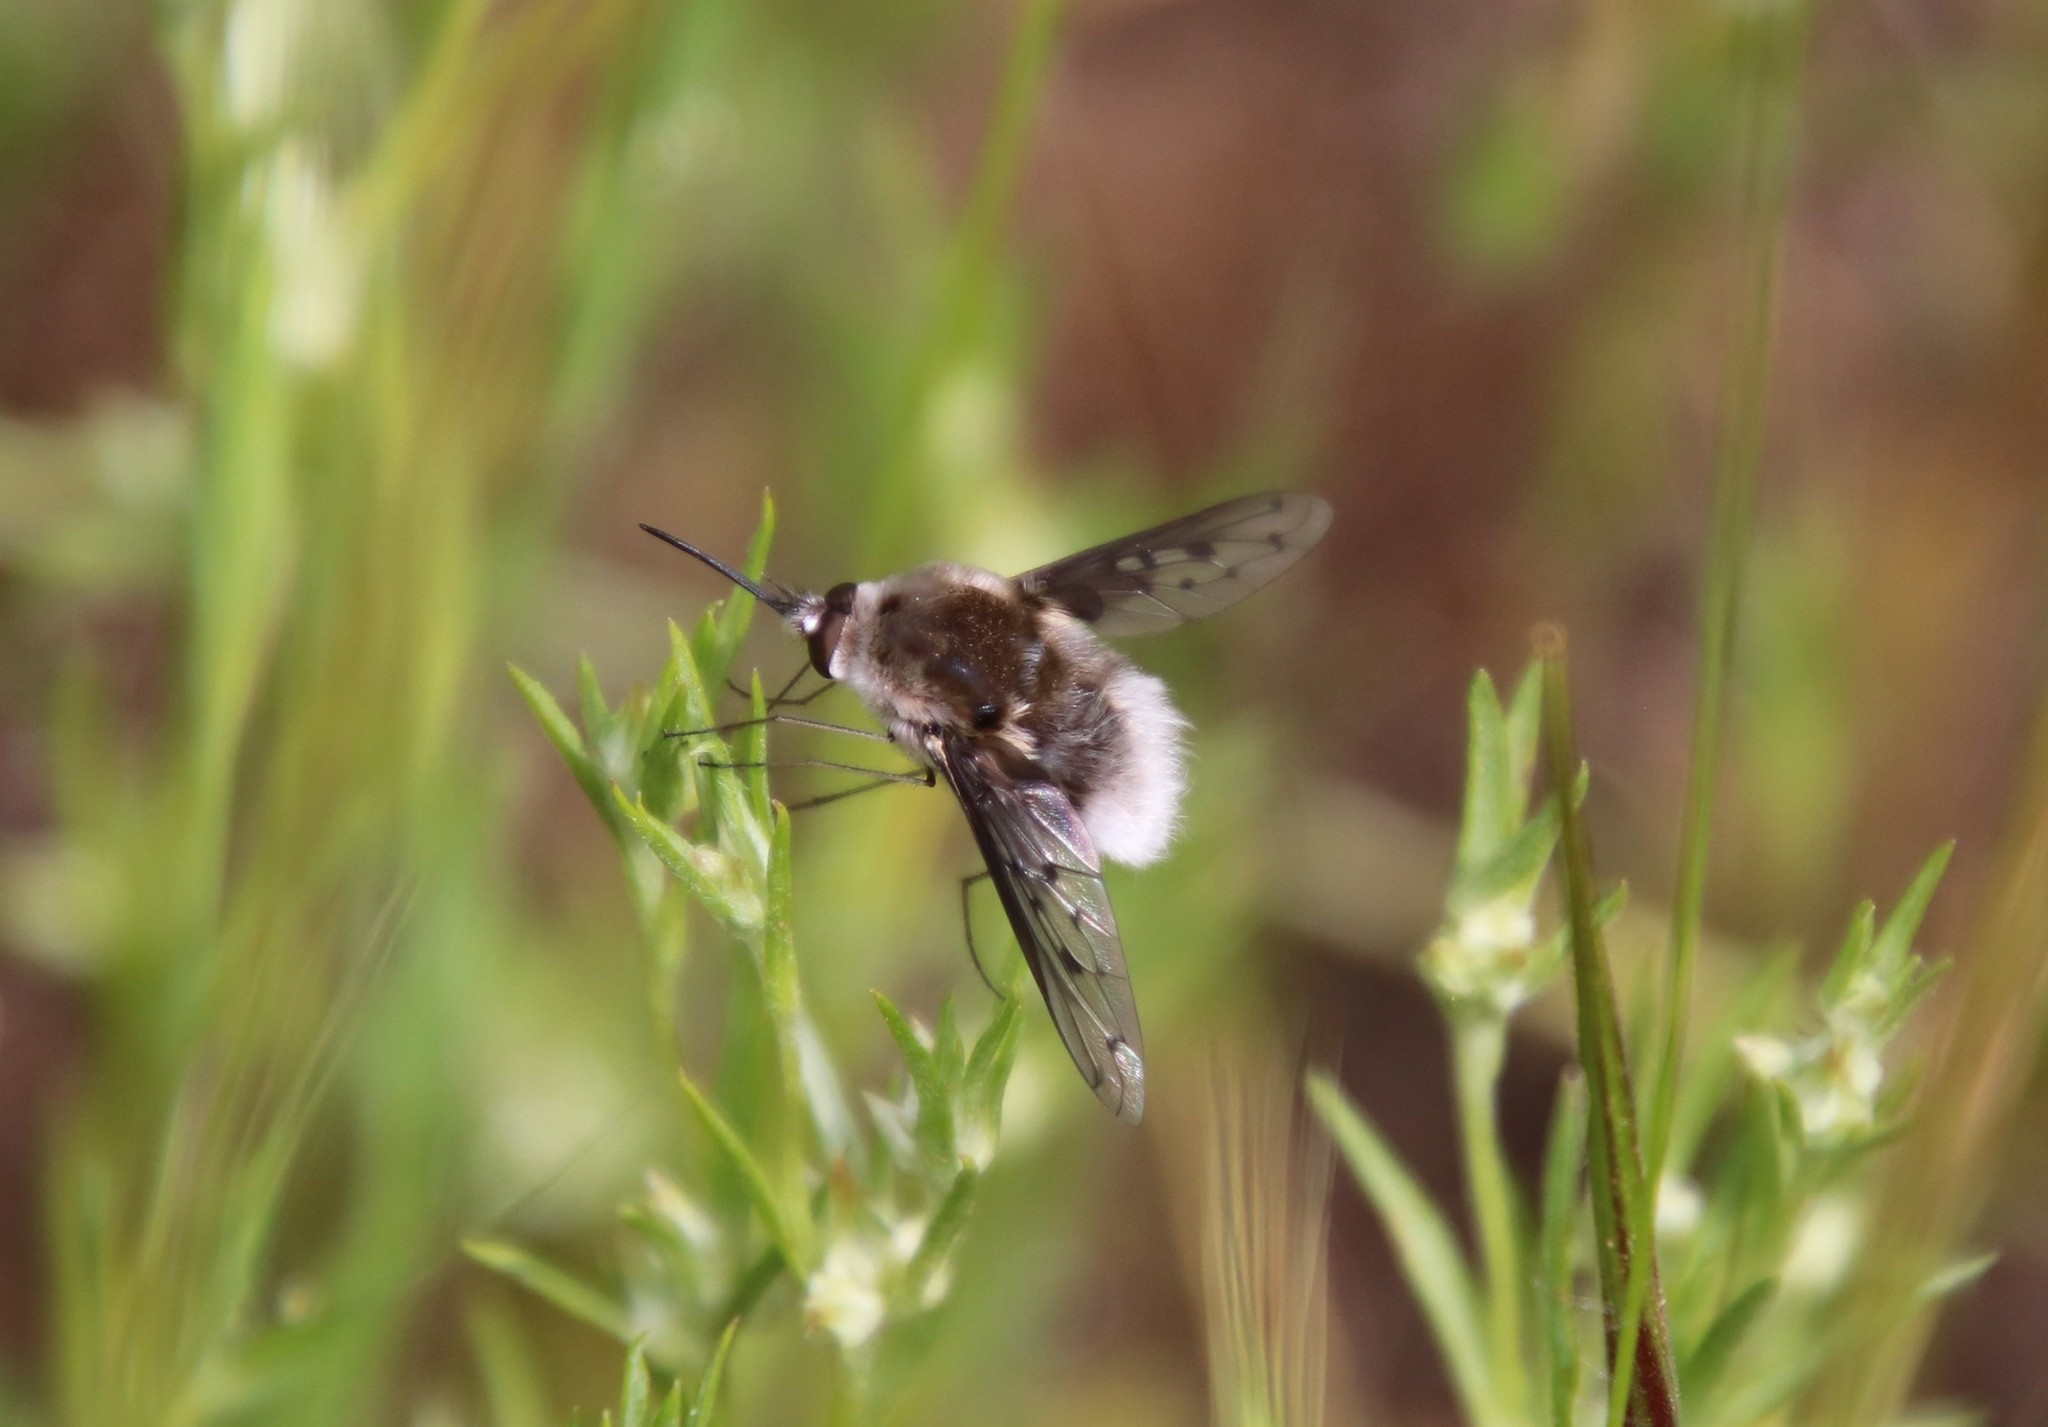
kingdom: Animalia
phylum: Arthropoda
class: Insecta
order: Diptera
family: Bombyliidae
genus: Bombylius
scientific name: Bombylius diegoensis
